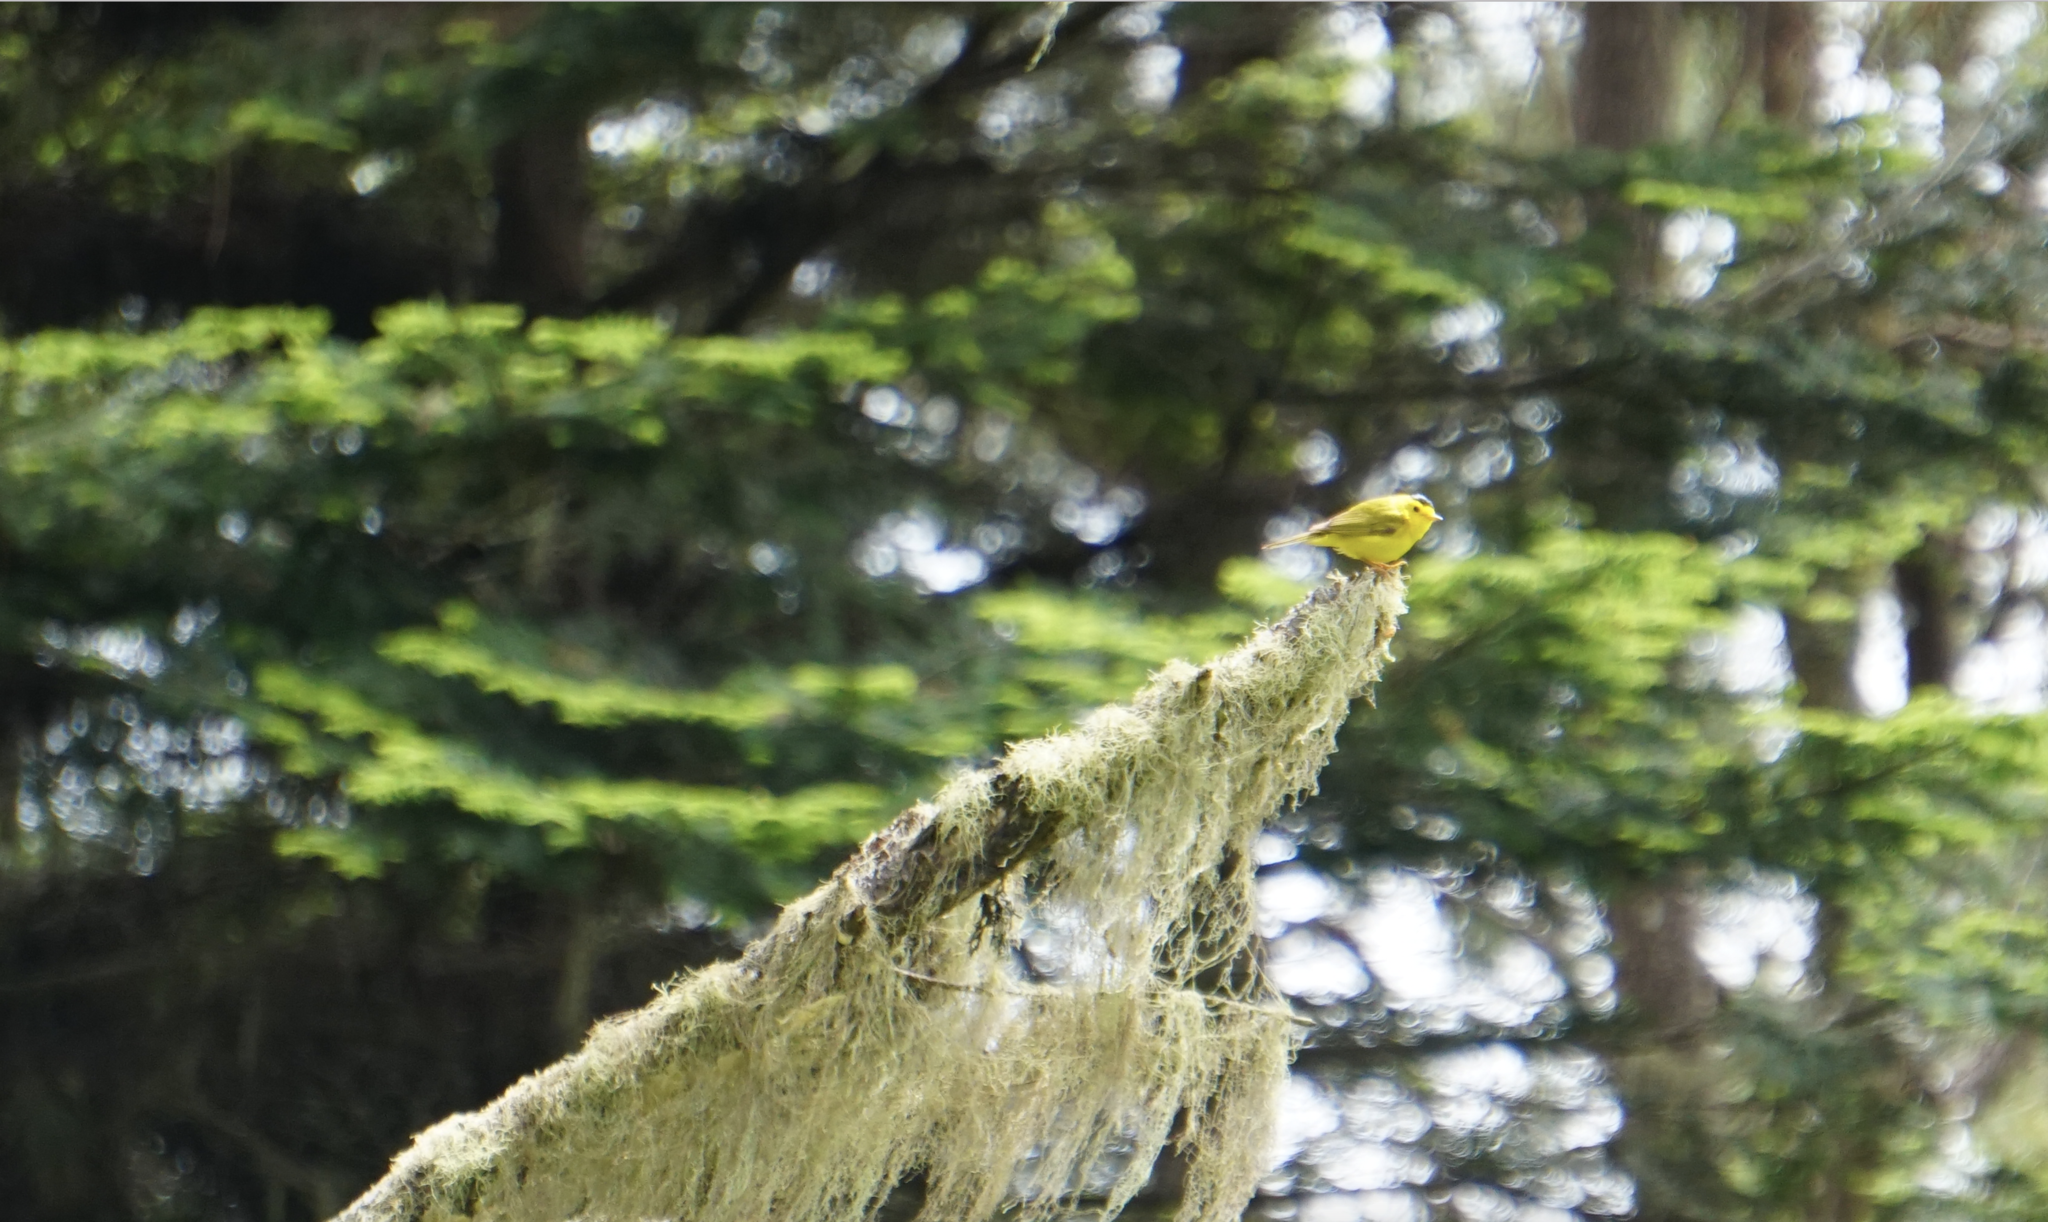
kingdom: Animalia
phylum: Chordata
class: Aves
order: Passeriformes
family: Parulidae
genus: Cardellina
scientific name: Cardellina pusilla
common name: Wilson's warbler
